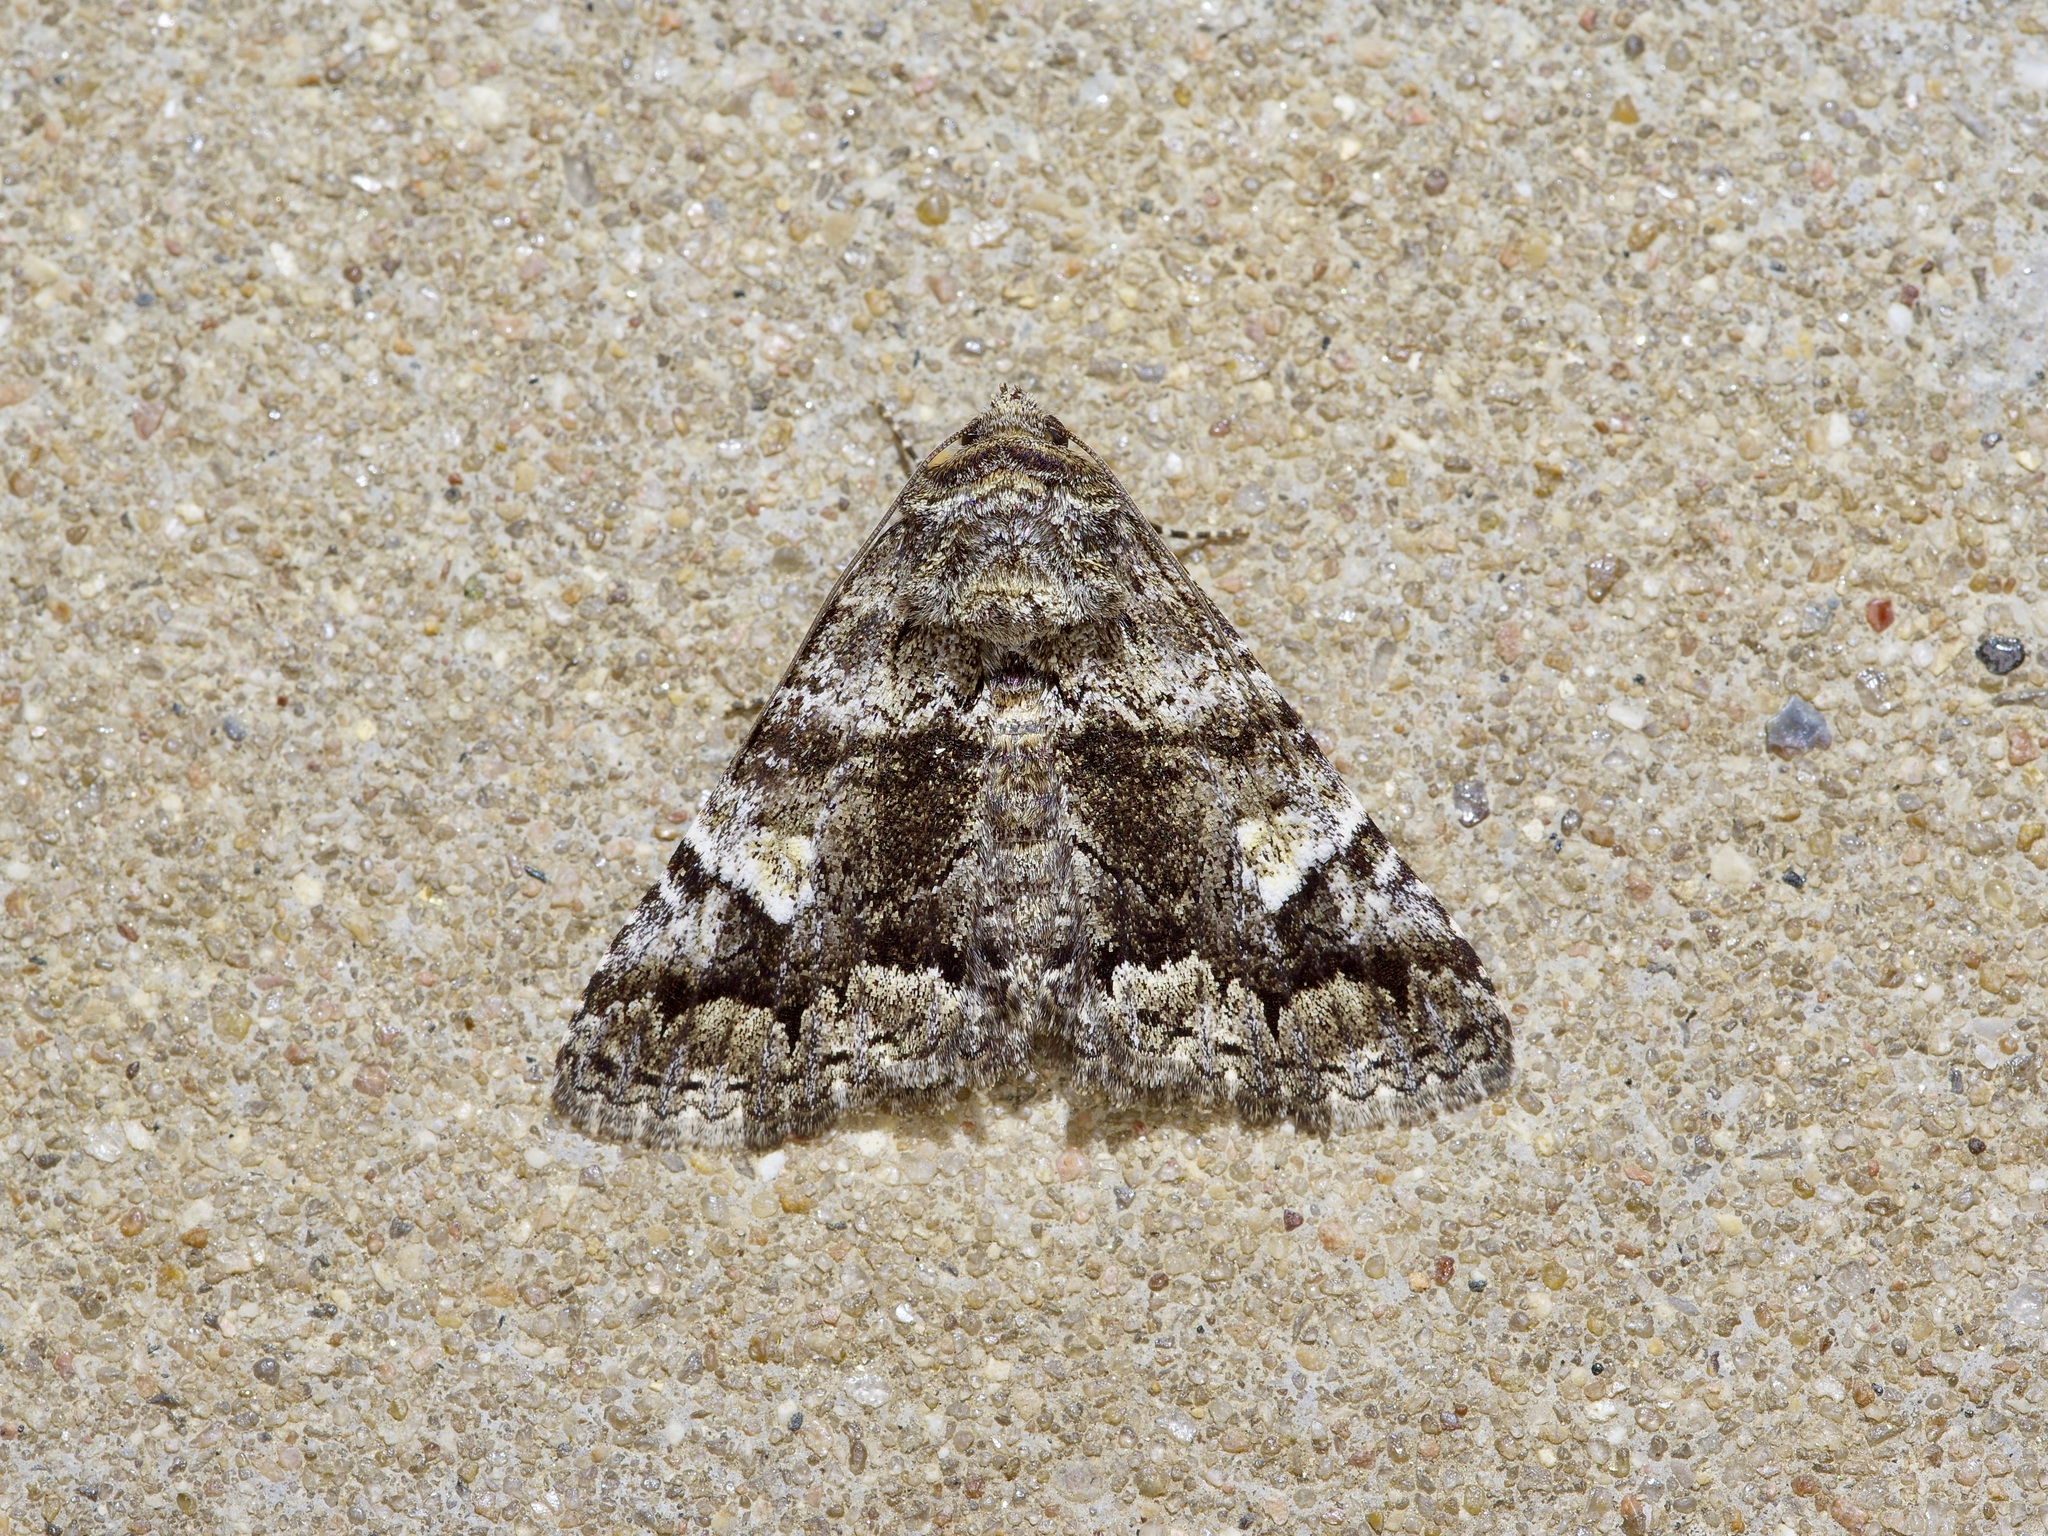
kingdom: Animalia
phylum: Arthropoda
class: Insecta
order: Lepidoptera
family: Erebidae
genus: Metria
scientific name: Metria amella
